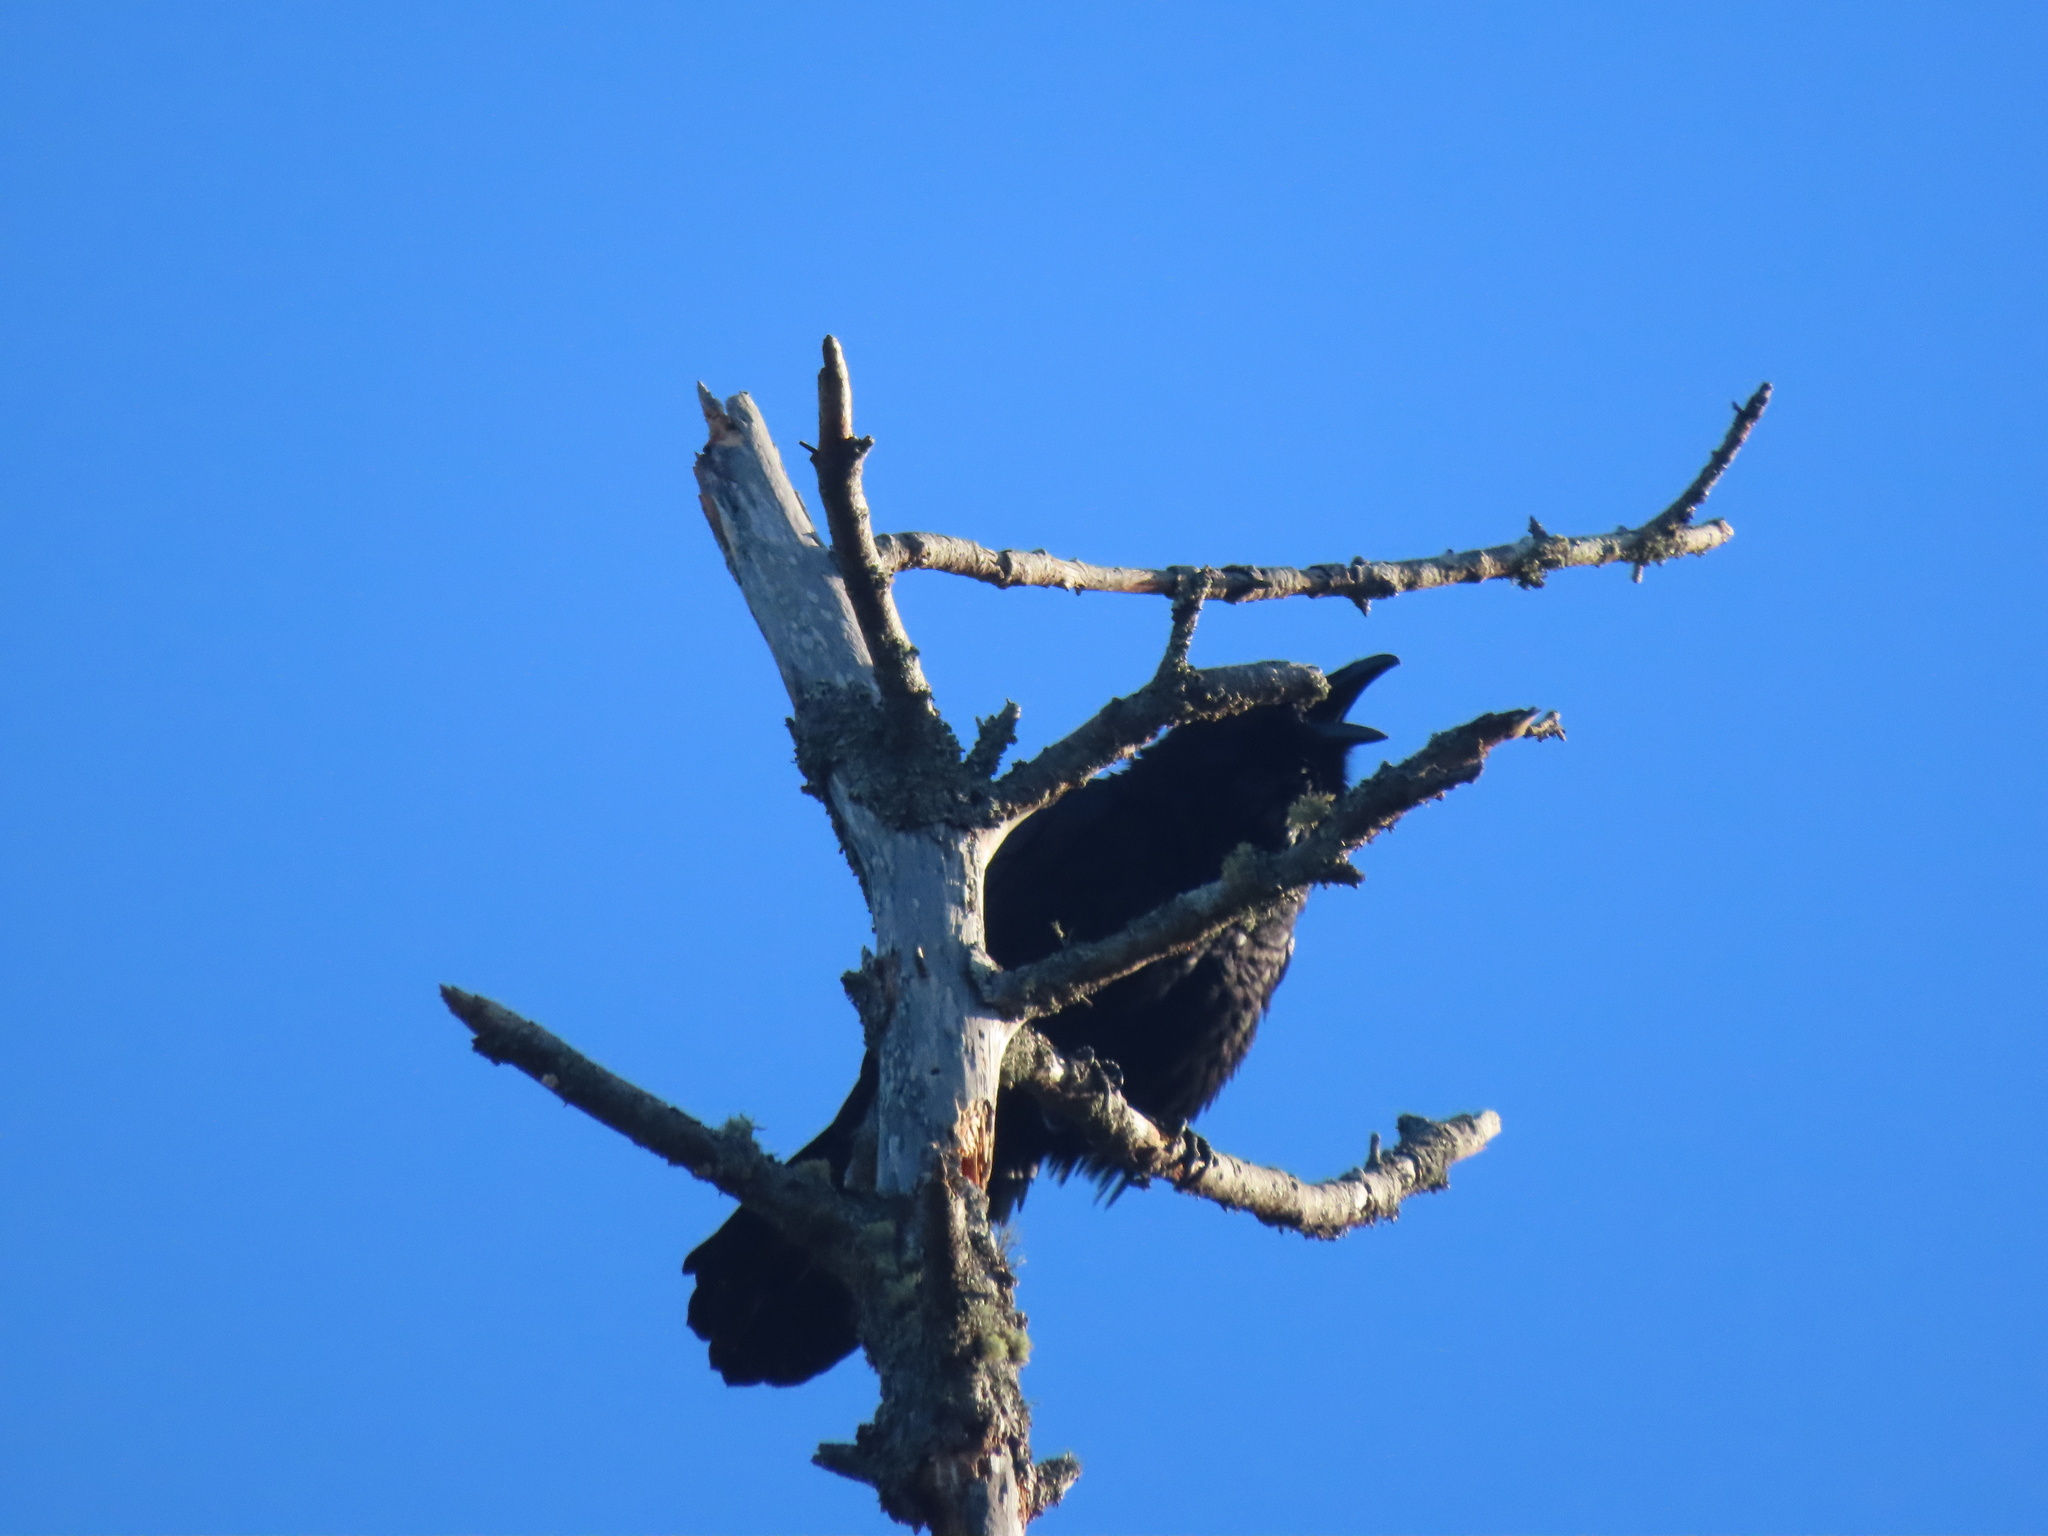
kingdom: Animalia
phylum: Chordata
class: Aves
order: Passeriformes
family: Corvidae
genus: Corvus
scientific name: Corvus corax
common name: Common raven
